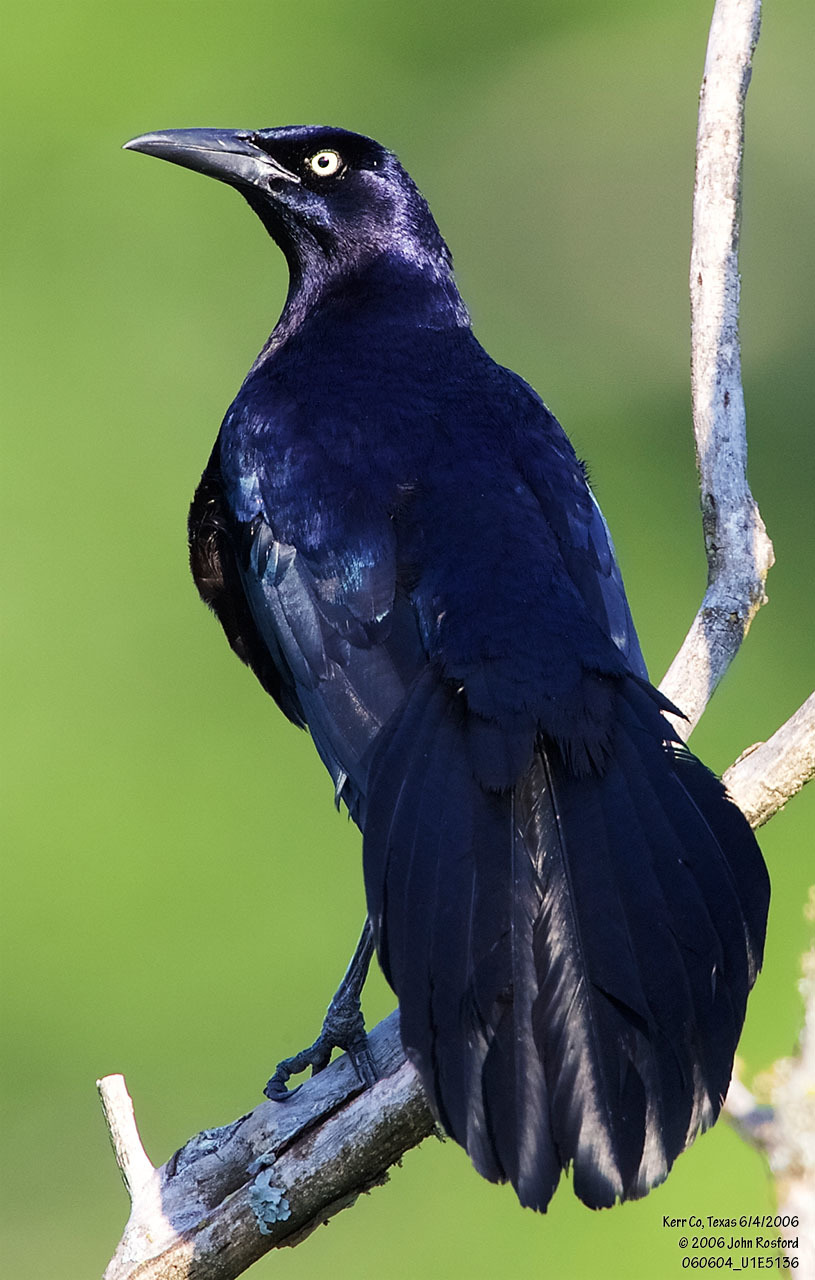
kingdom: Animalia
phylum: Chordata
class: Aves
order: Passeriformes
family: Icteridae
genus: Quiscalus
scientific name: Quiscalus mexicanus
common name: Great-tailed grackle
